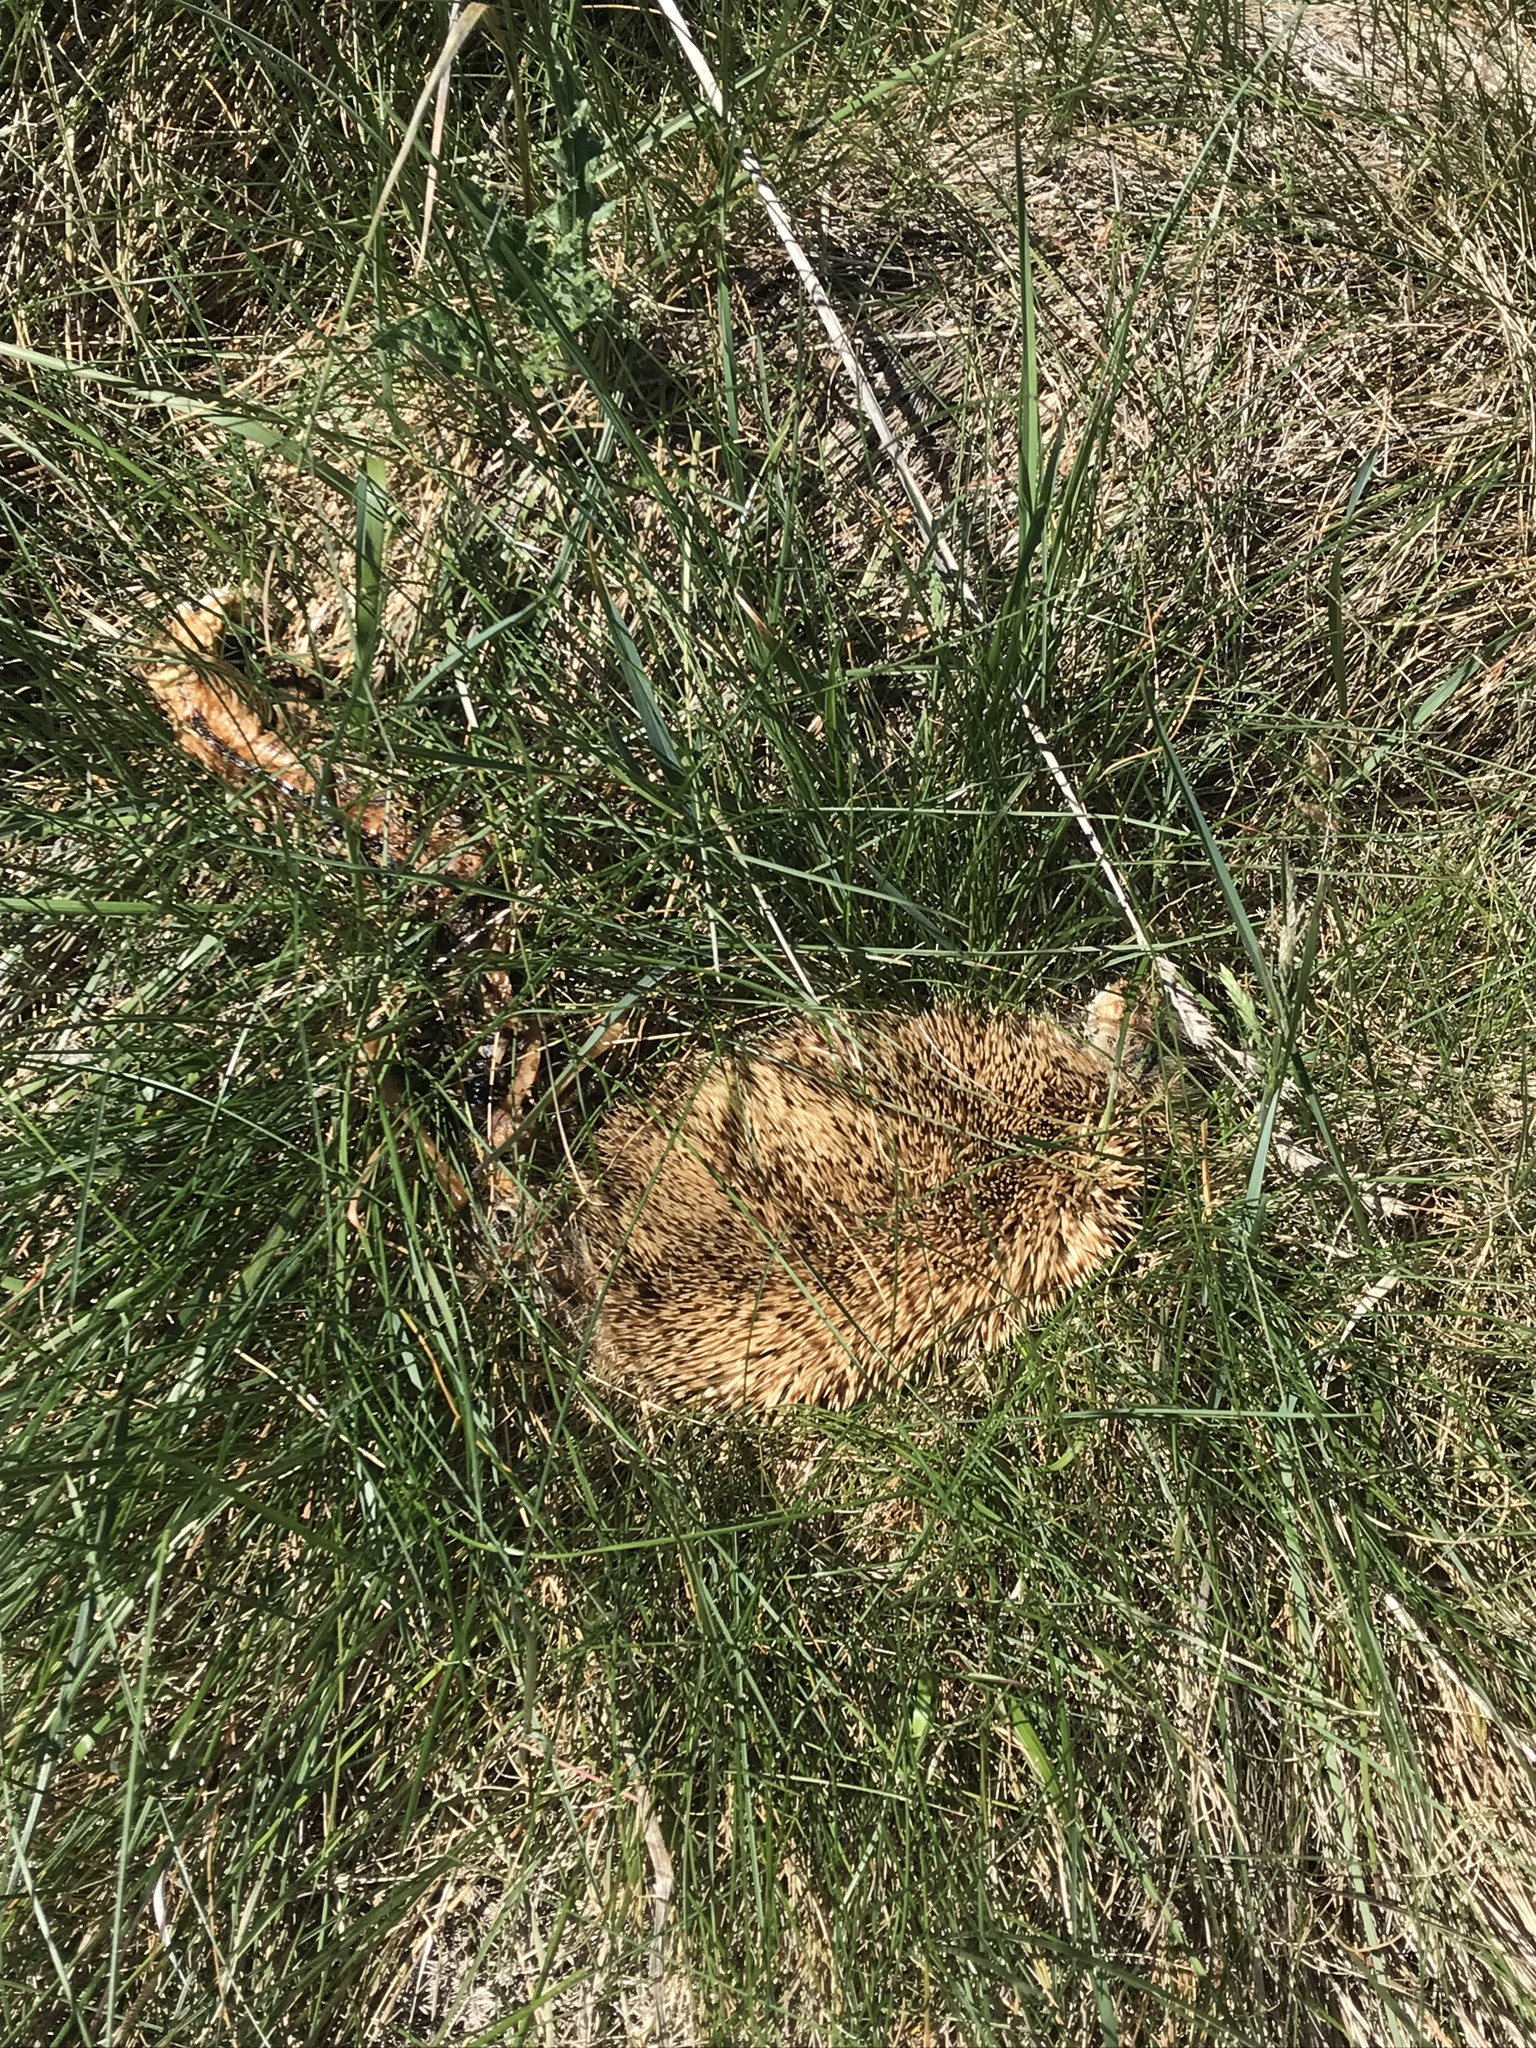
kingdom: Animalia
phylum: Chordata
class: Mammalia
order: Erinaceomorpha
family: Erinaceidae
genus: Erinaceus
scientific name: Erinaceus europaeus
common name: West european hedgehog
